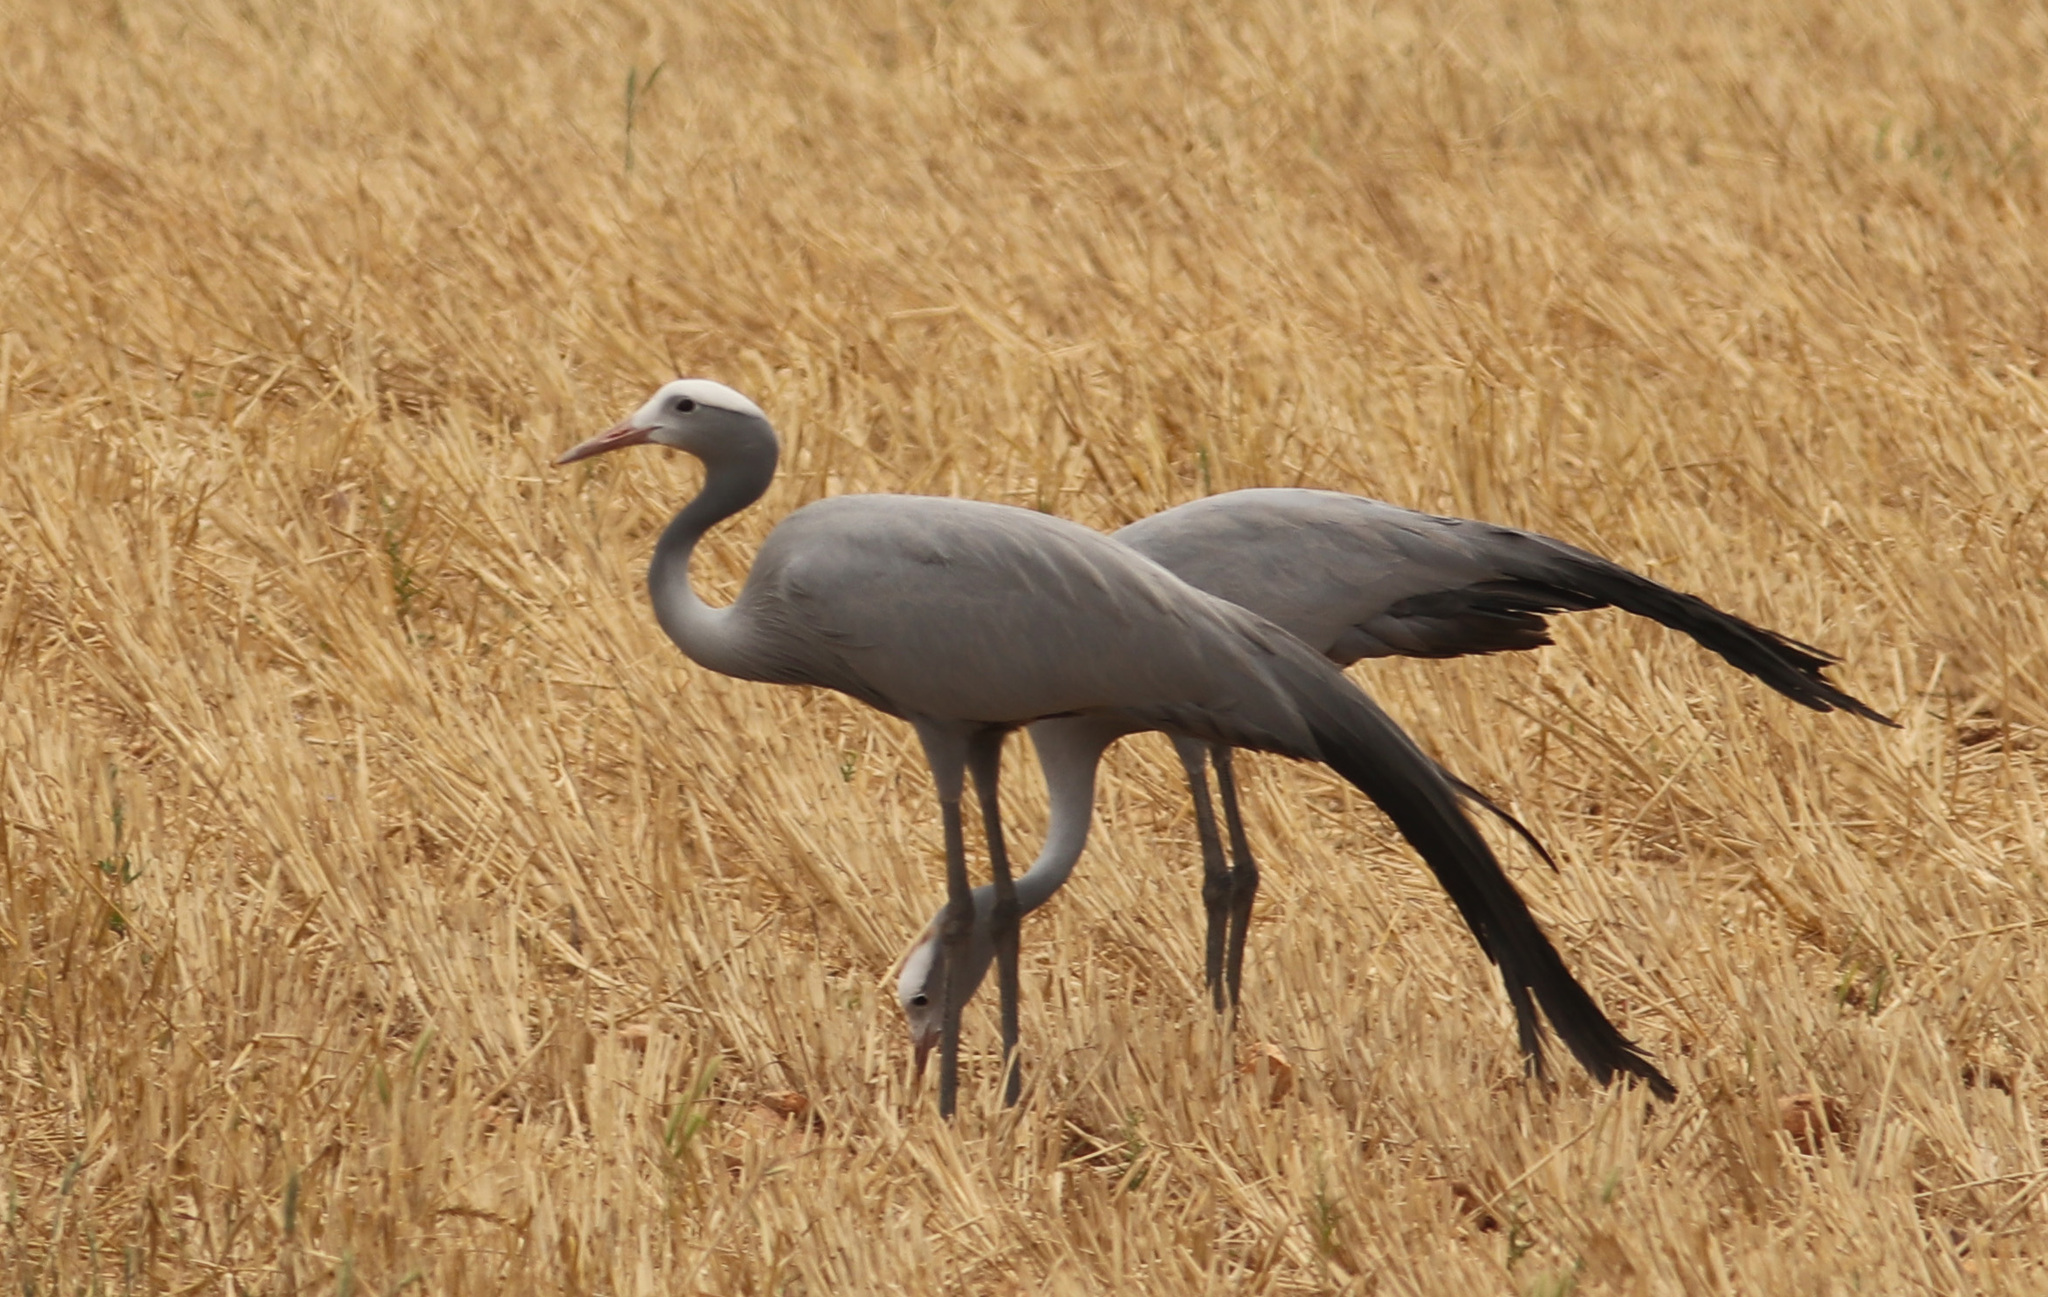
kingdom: Animalia
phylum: Chordata
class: Aves
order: Gruiformes
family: Gruidae
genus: Anthropoides
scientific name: Anthropoides paradiseus
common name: Blue crane
